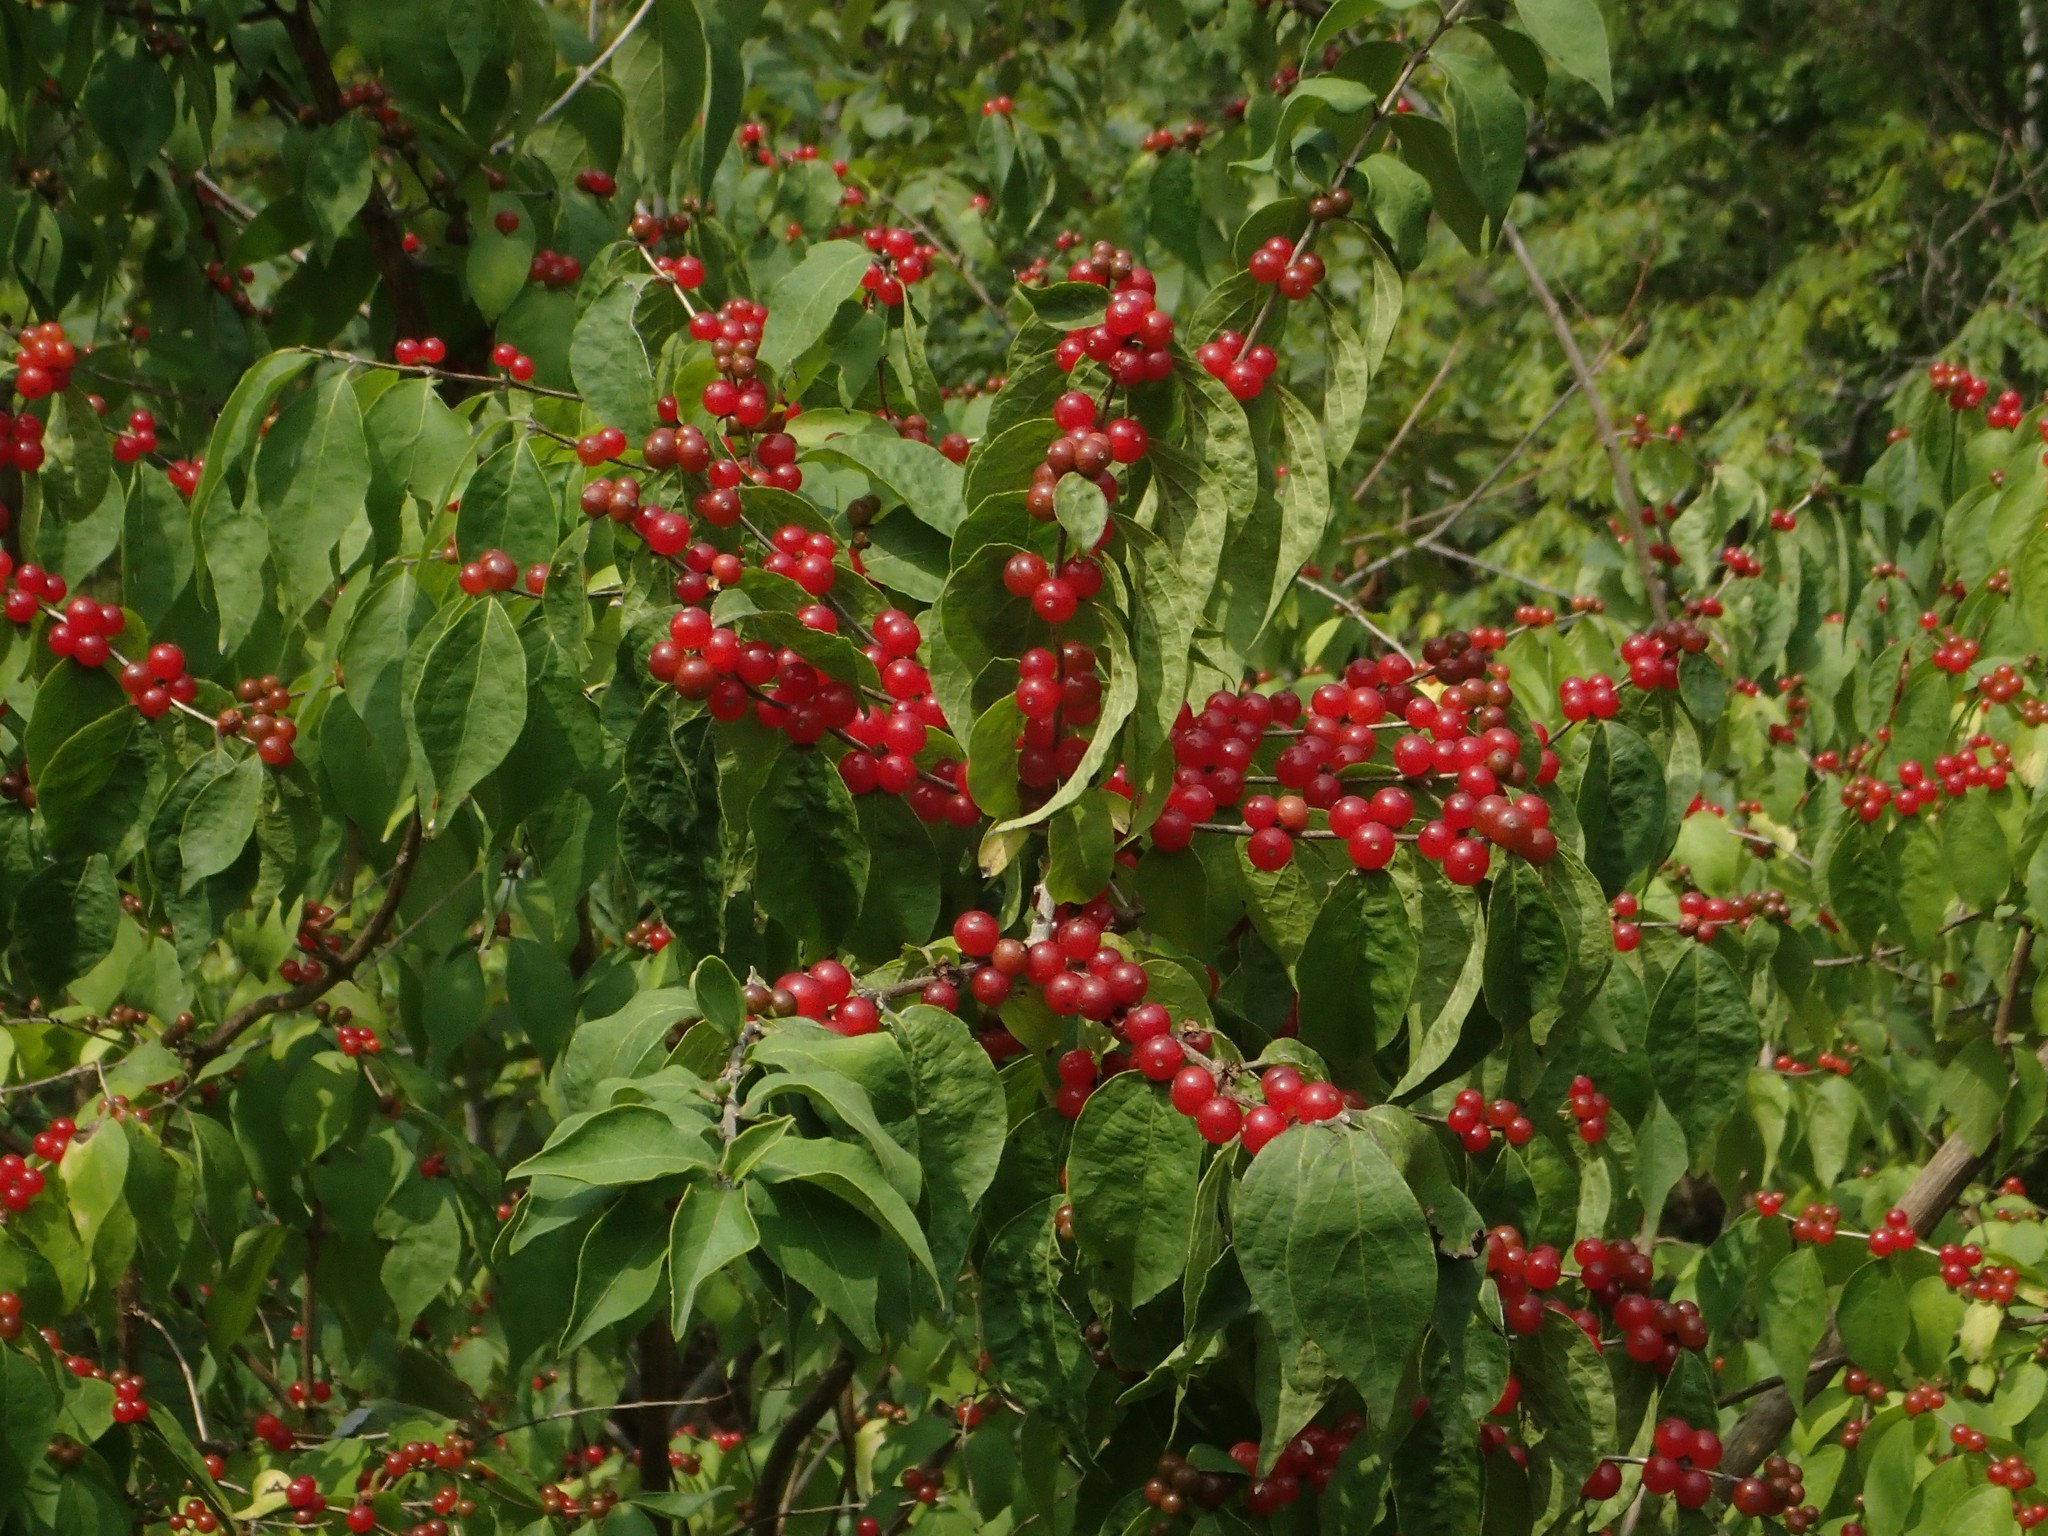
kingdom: Plantae
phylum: Tracheophyta
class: Magnoliopsida
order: Dipsacales
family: Caprifoliaceae
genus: Lonicera
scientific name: Lonicera maackii
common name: Amur honeysuckle
